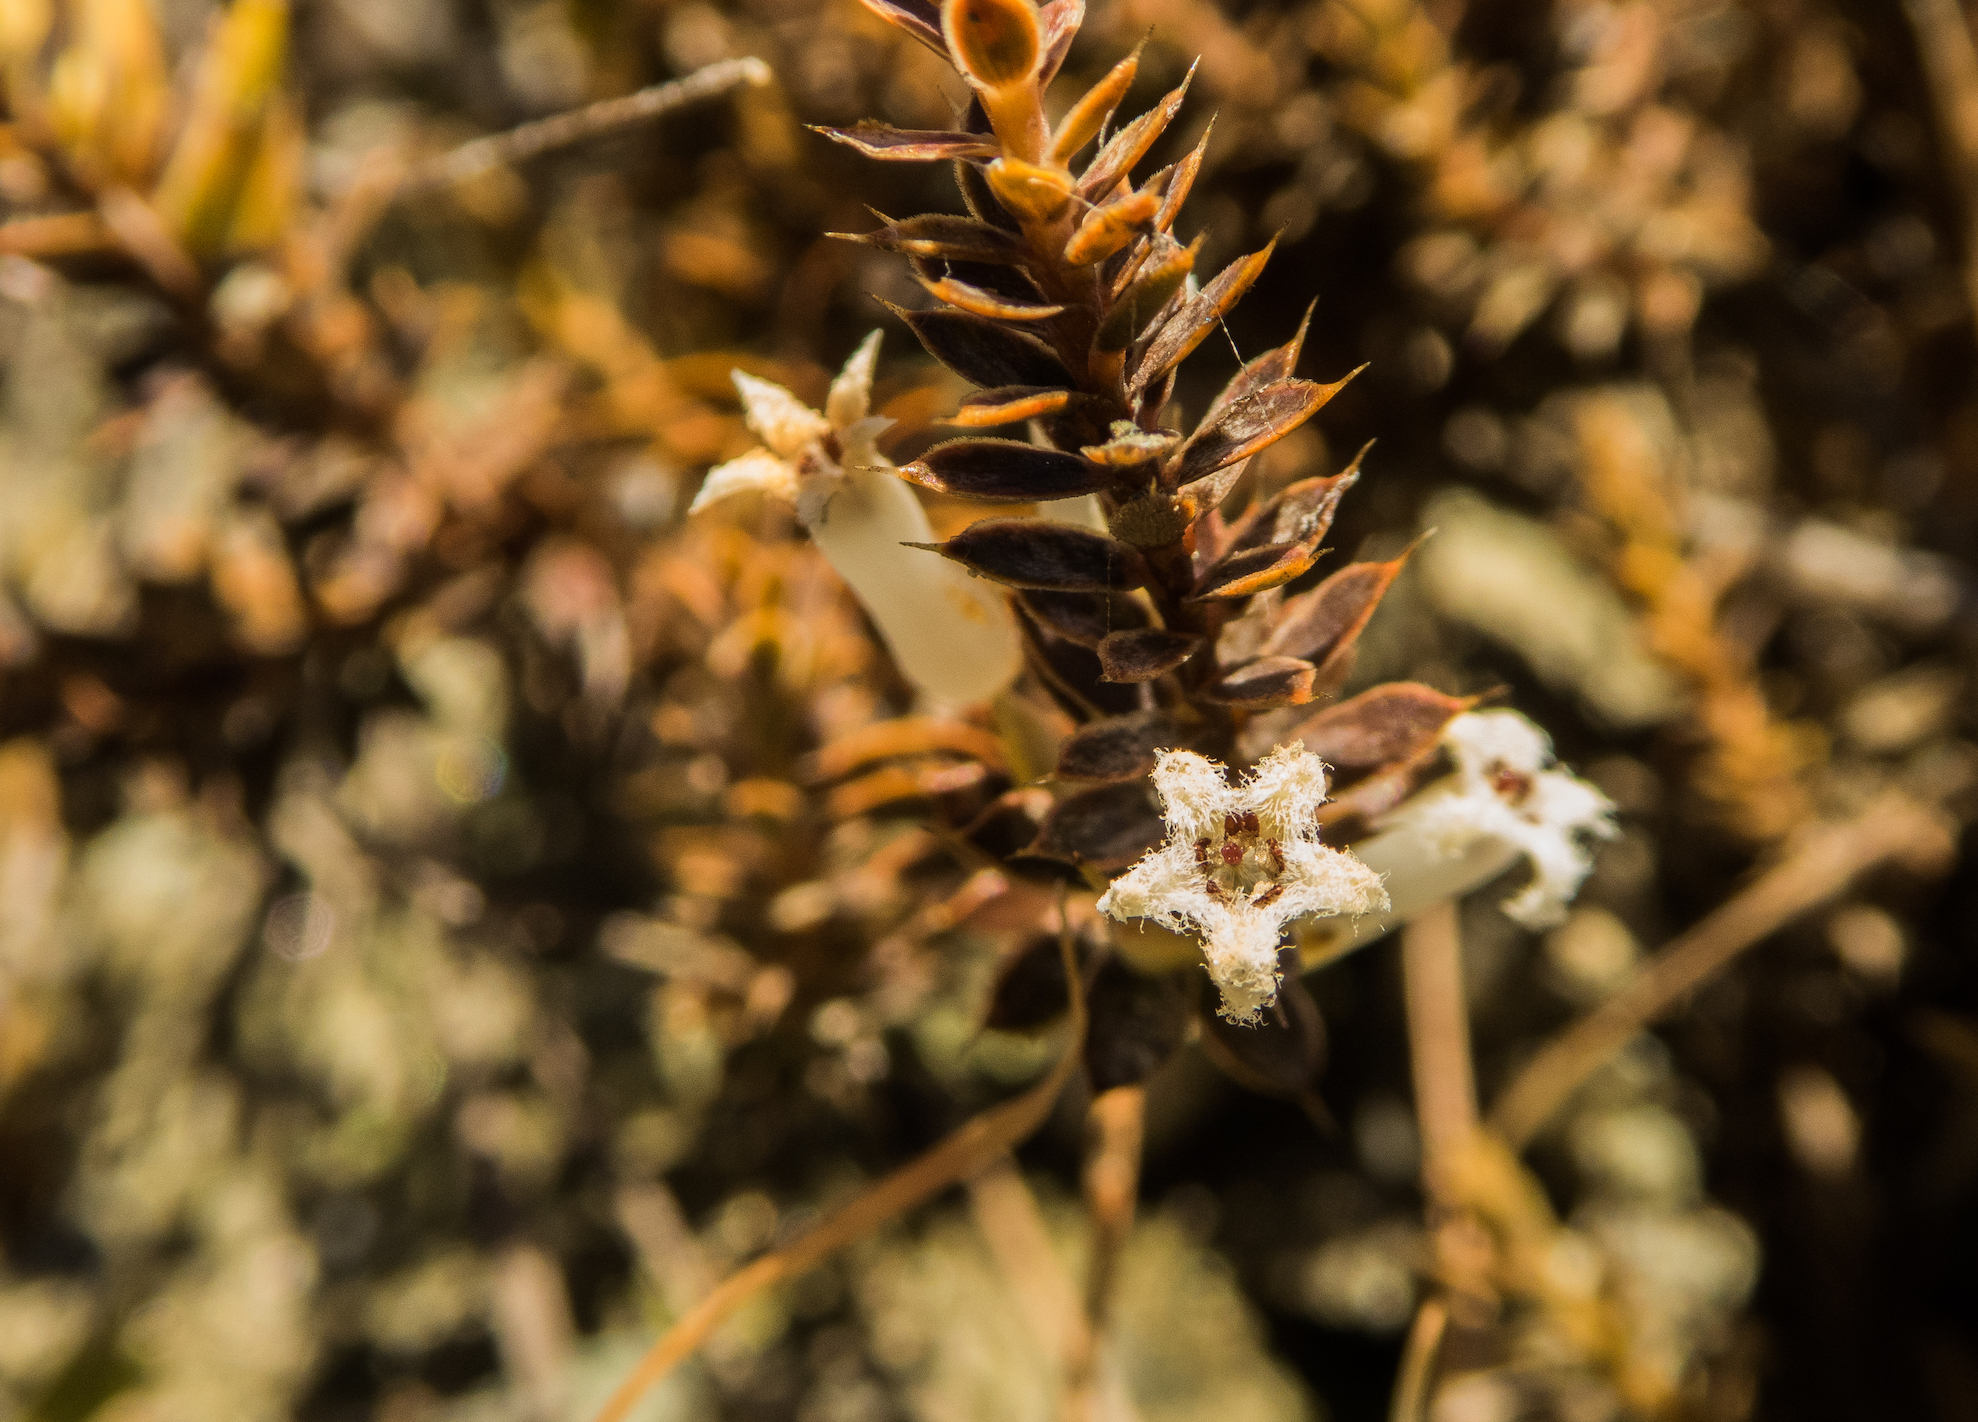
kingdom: Plantae
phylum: Tracheophyta
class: Magnoliopsida
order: Ericales
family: Ericaceae
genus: Styphelia
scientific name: Styphelia nesophila
